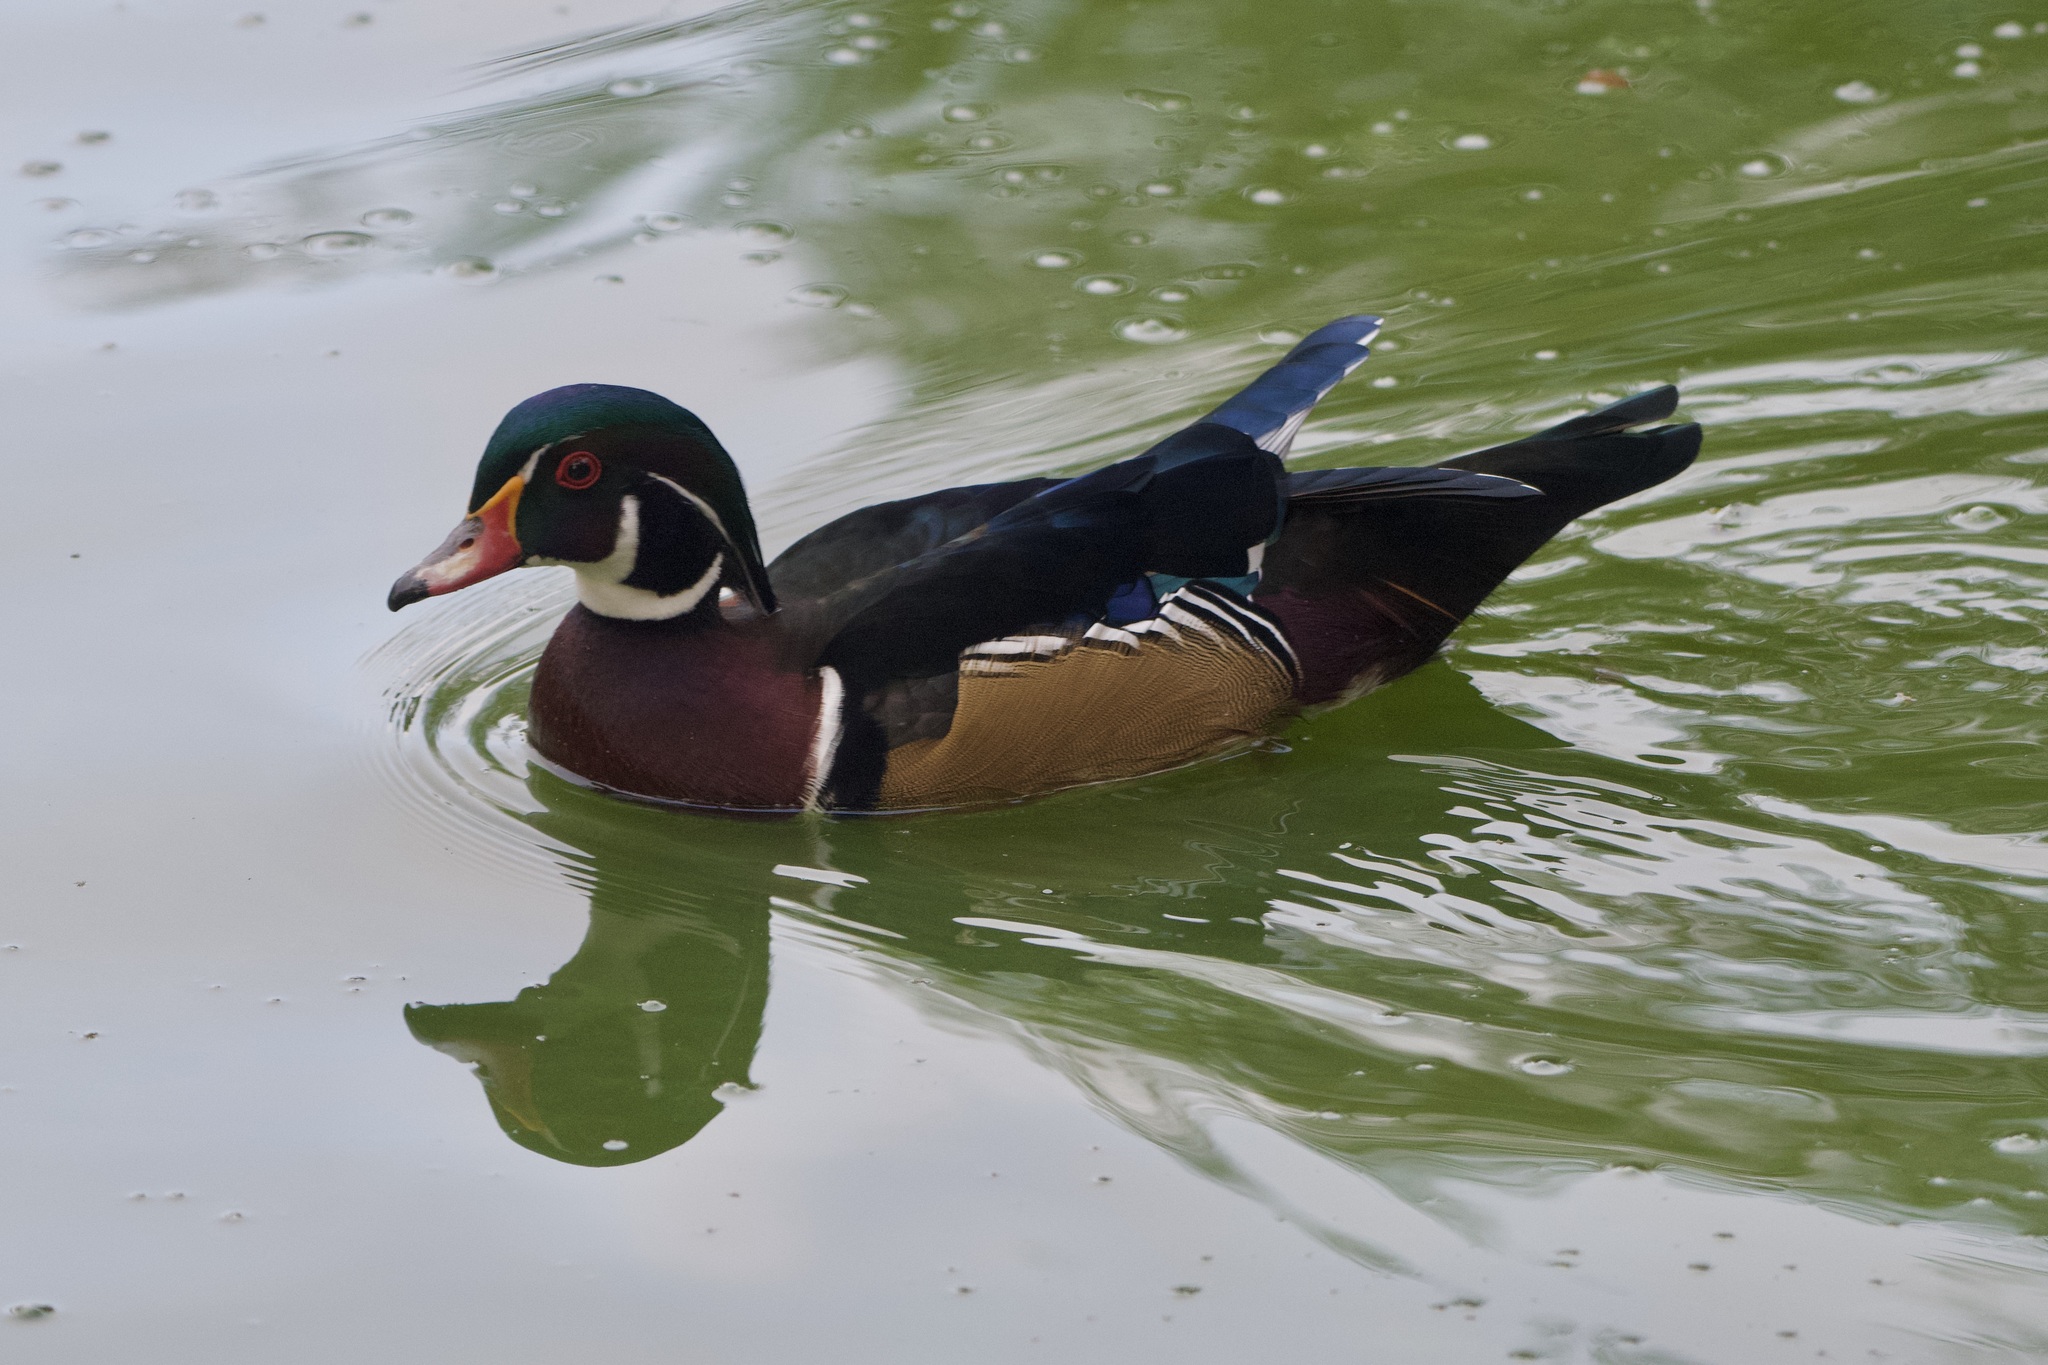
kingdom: Animalia
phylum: Chordata
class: Aves
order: Anseriformes
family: Anatidae
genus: Aix
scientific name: Aix sponsa
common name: Wood duck
